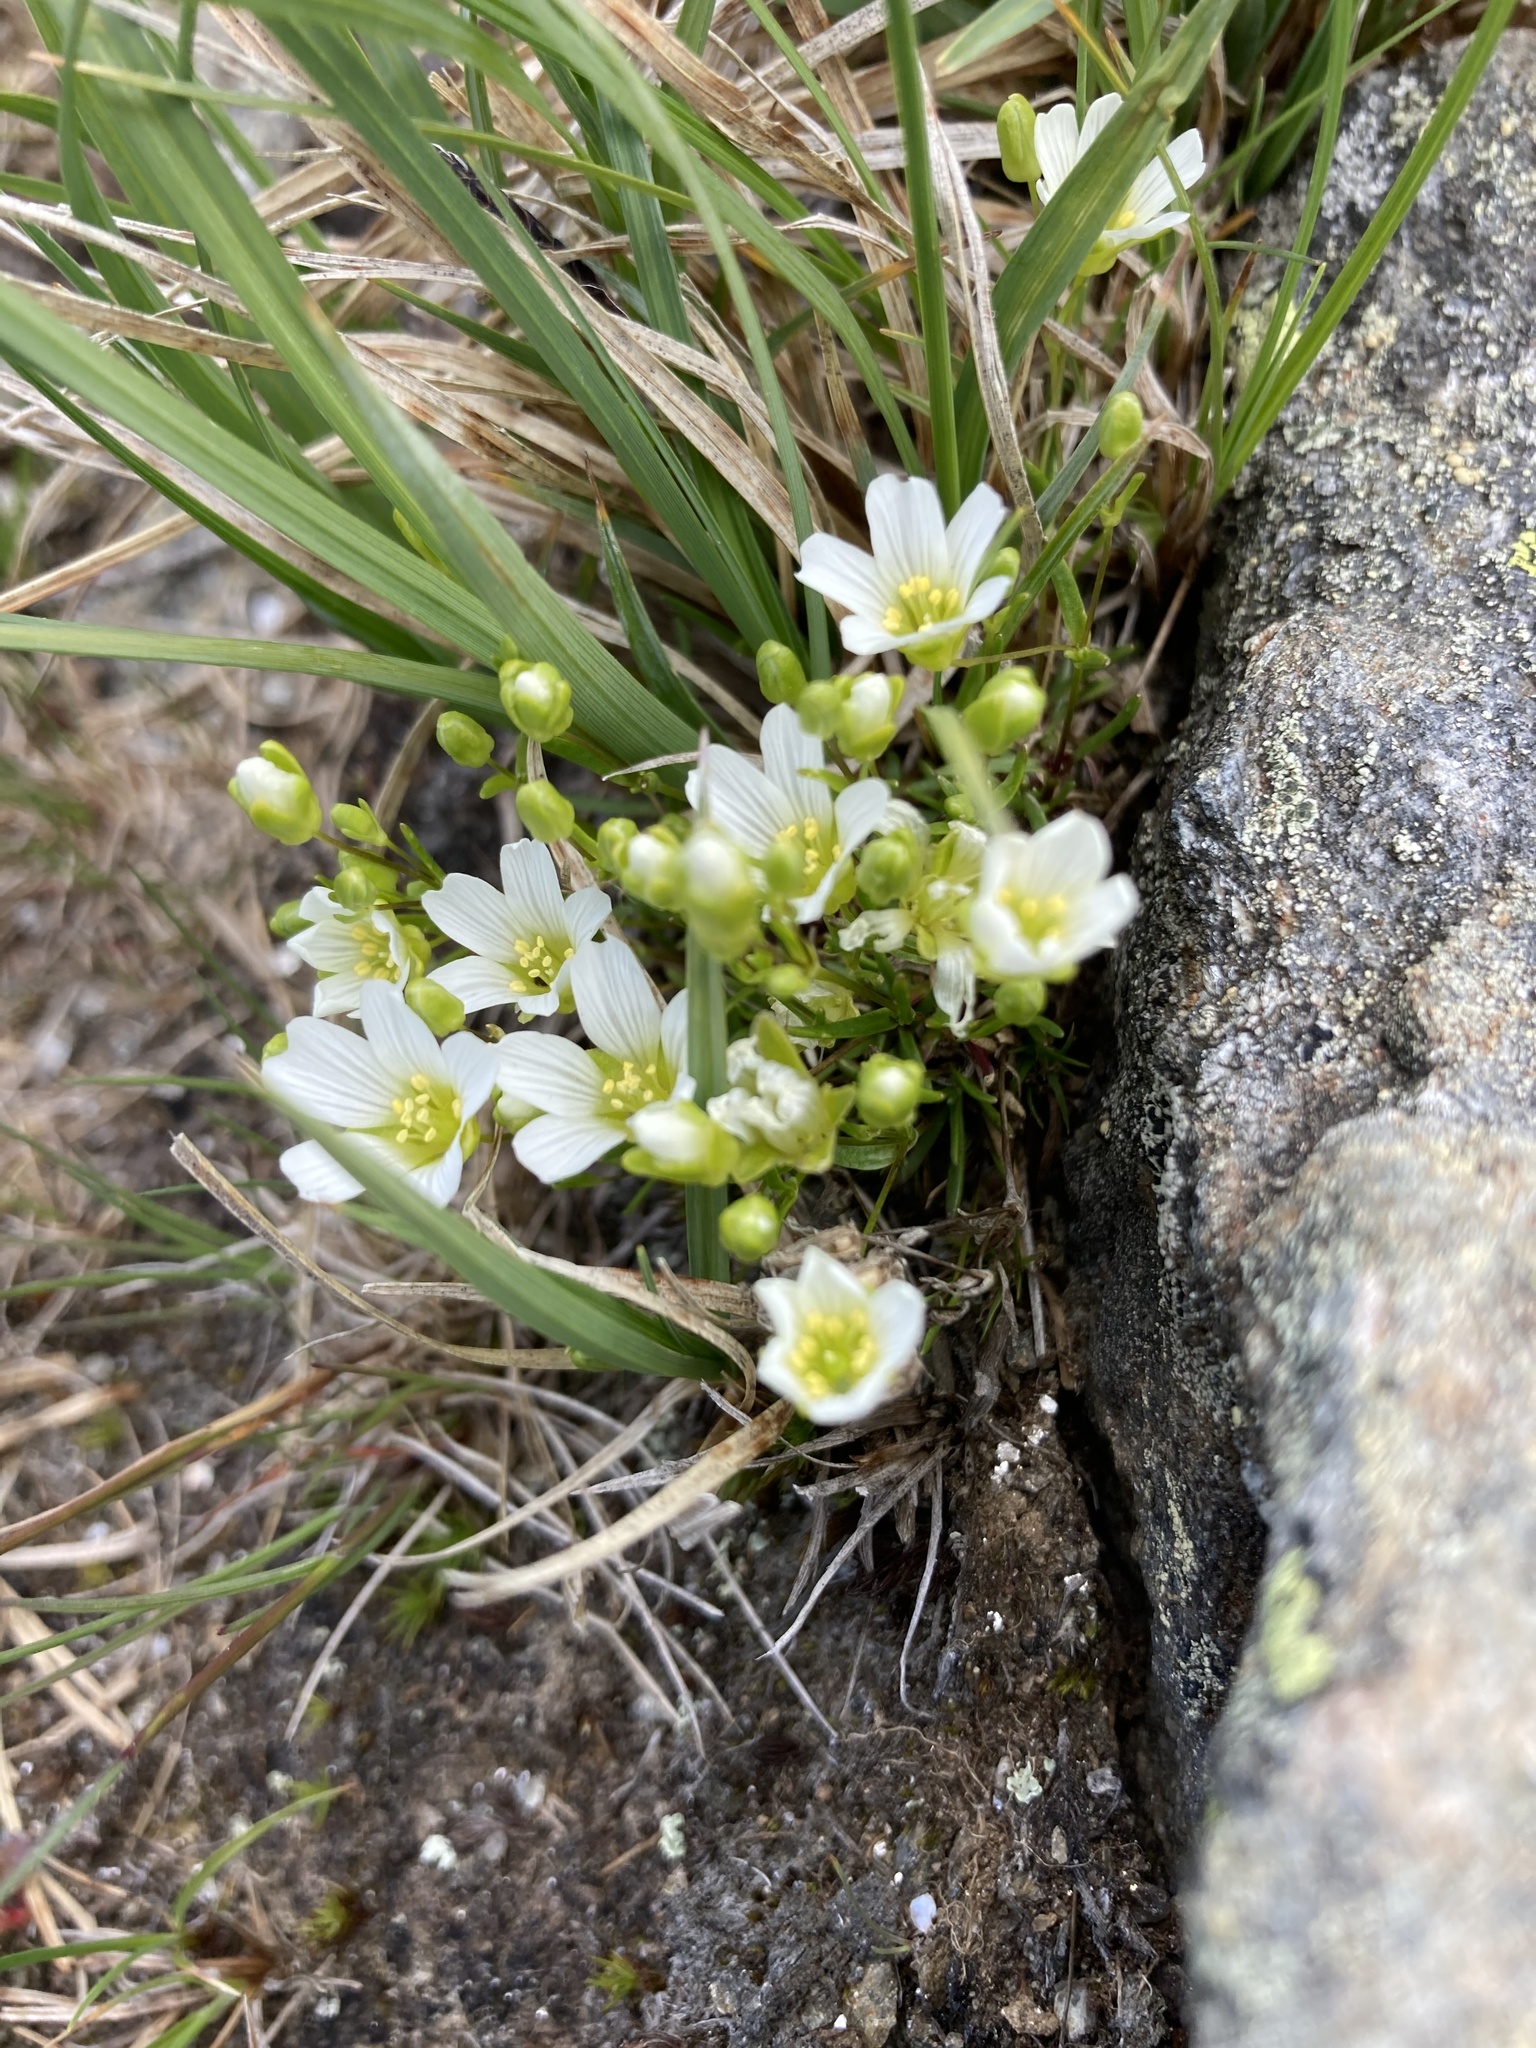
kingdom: Plantae
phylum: Tracheophyta
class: Magnoliopsida
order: Caryophyllales
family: Caryophyllaceae
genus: Geocarpon
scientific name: Geocarpon groenlandicum
